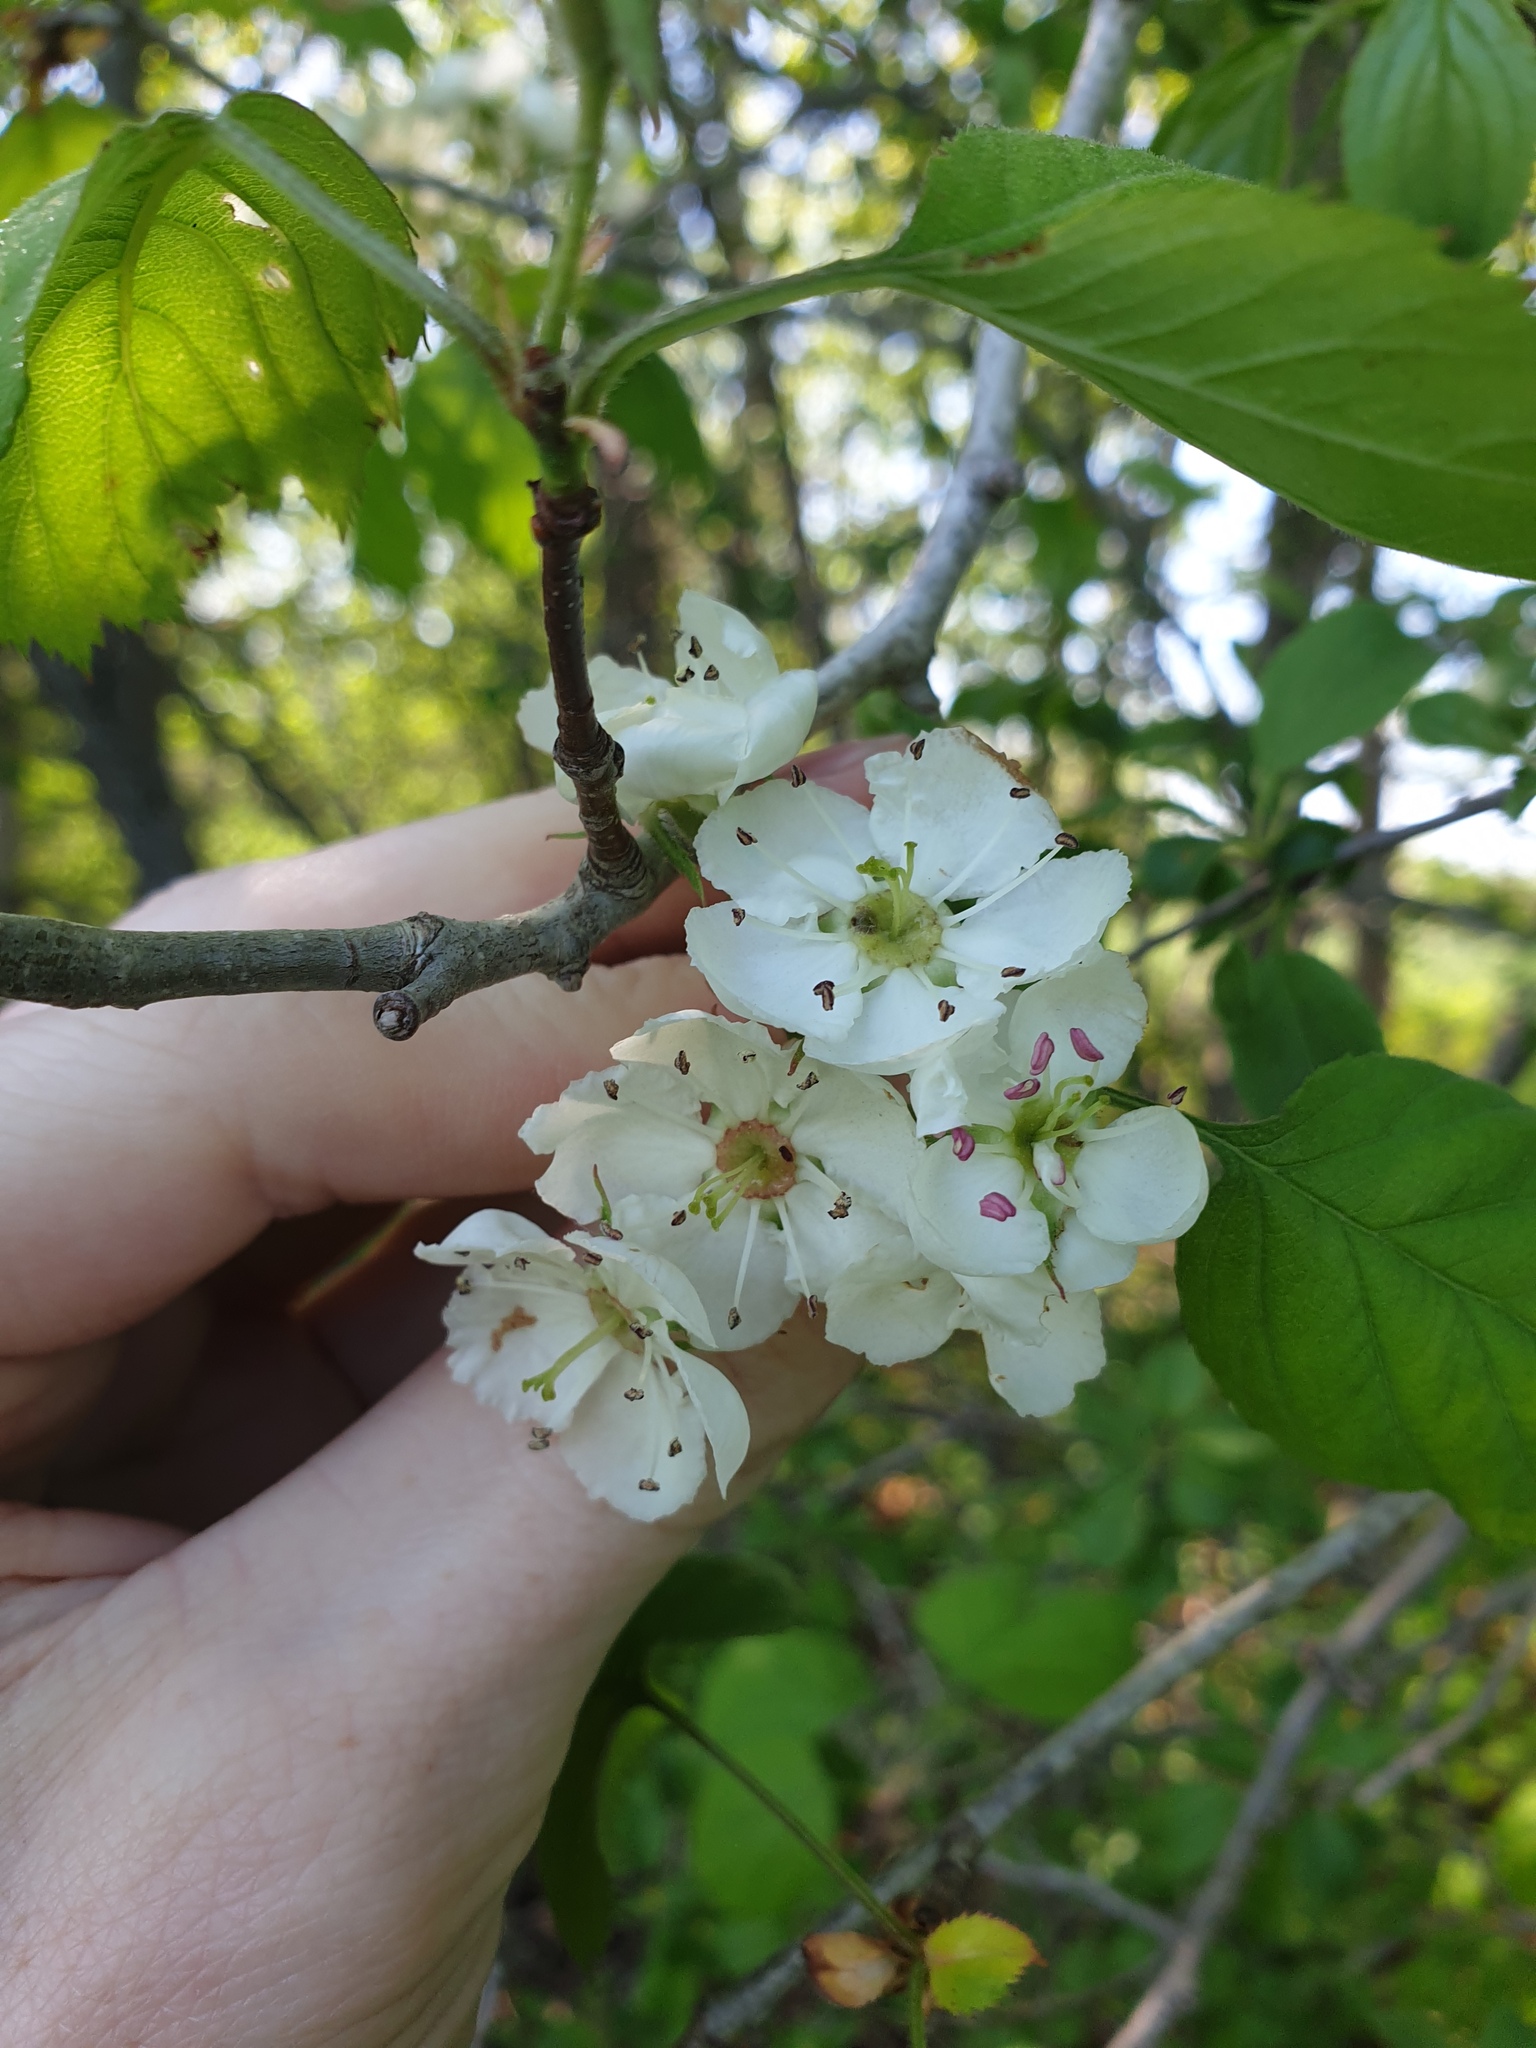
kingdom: Plantae
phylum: Tracheophyta
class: Magnoliopsida
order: Rosales
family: Rosaceae
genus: Crataegus
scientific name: Crataegus coccinea
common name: Scarlet hawthorn
